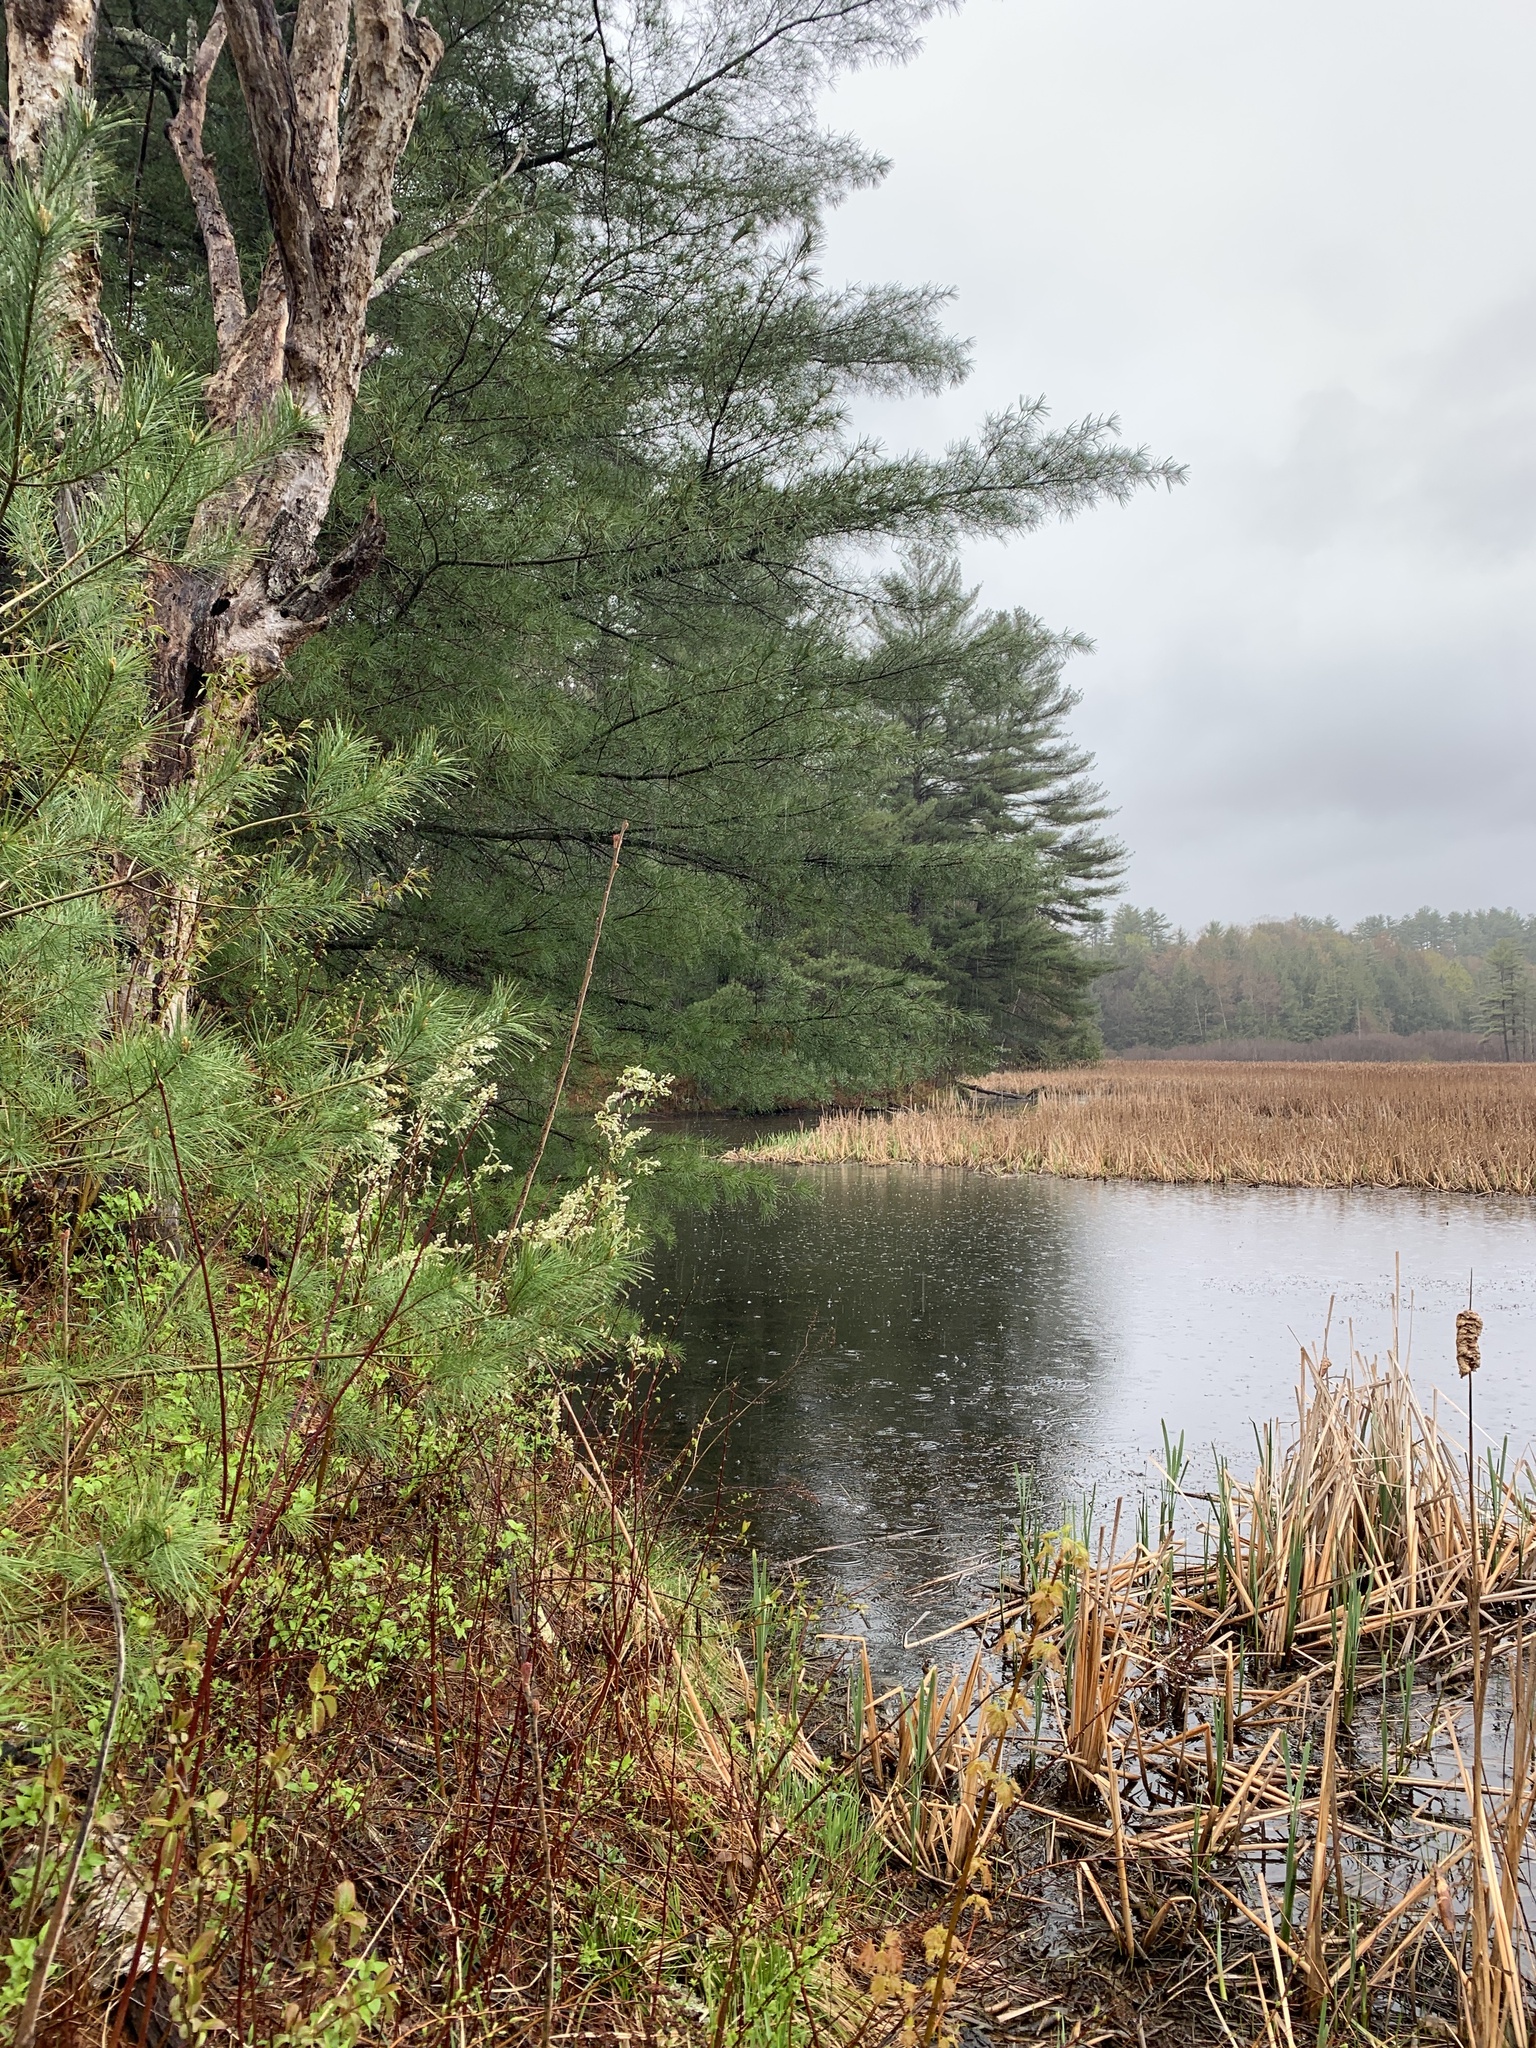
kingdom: Plantae
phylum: Tracheophyta
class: Pinopsida
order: Pinales
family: Pinaceae
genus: Pinus
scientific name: Pinus strobus
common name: Weymouth pine
